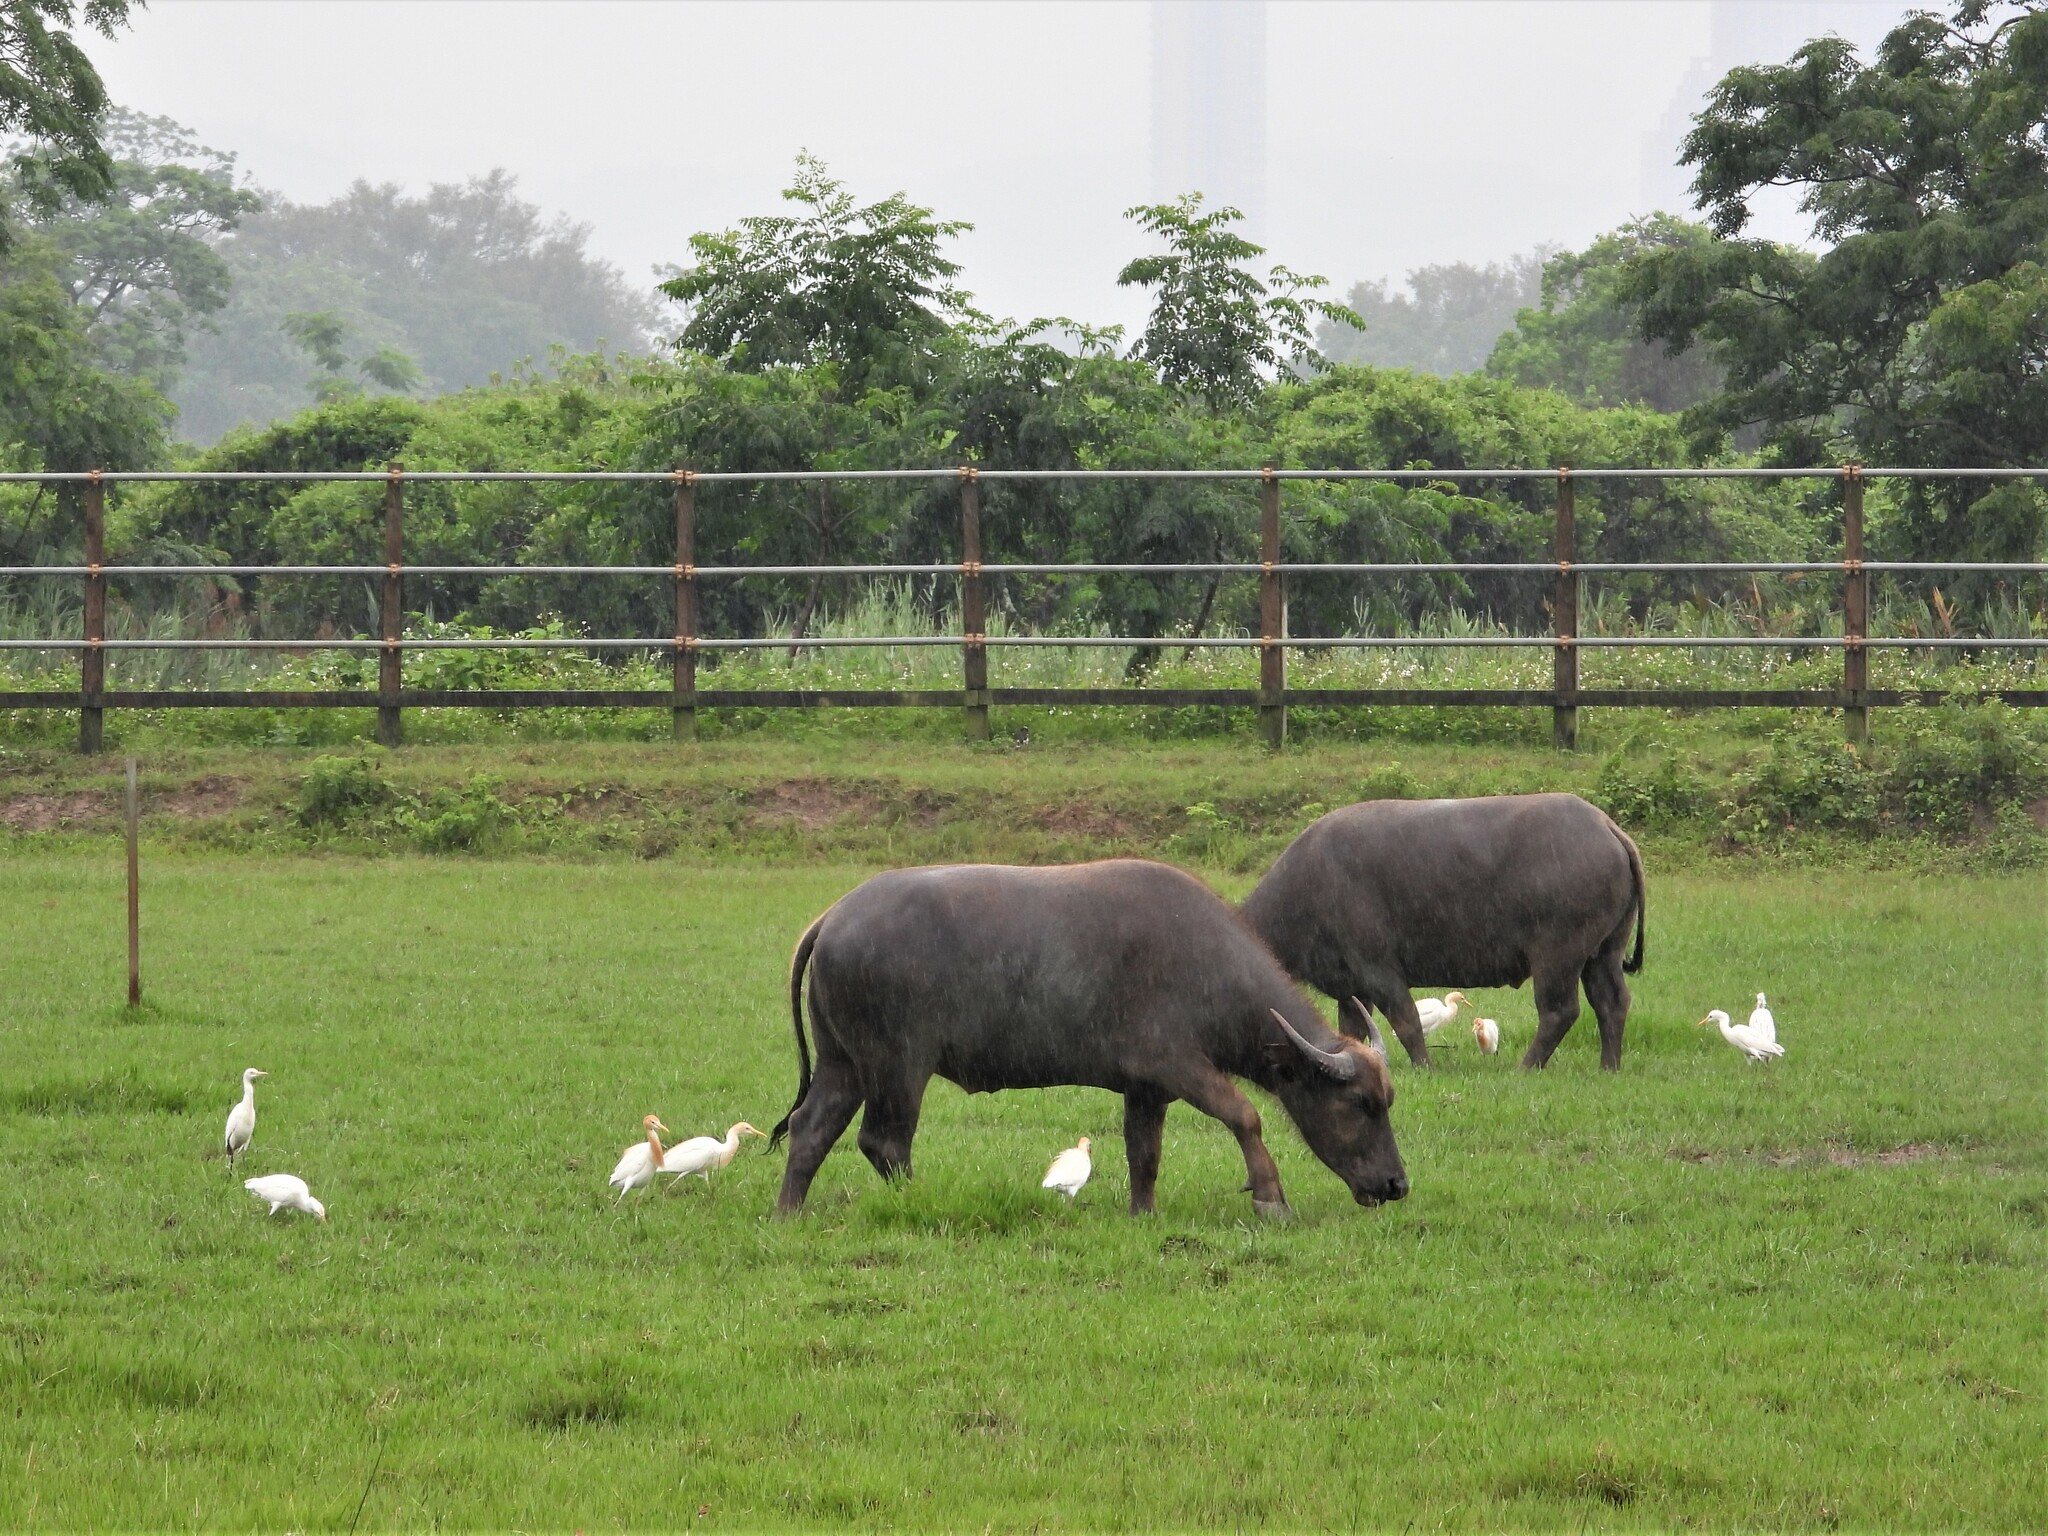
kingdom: Animalia
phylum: Chordata
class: Aves
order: Pelecaniformes
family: Ardeidae
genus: Bubulcus
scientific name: Bubulcus coromandus
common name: Eastern cattle egret
